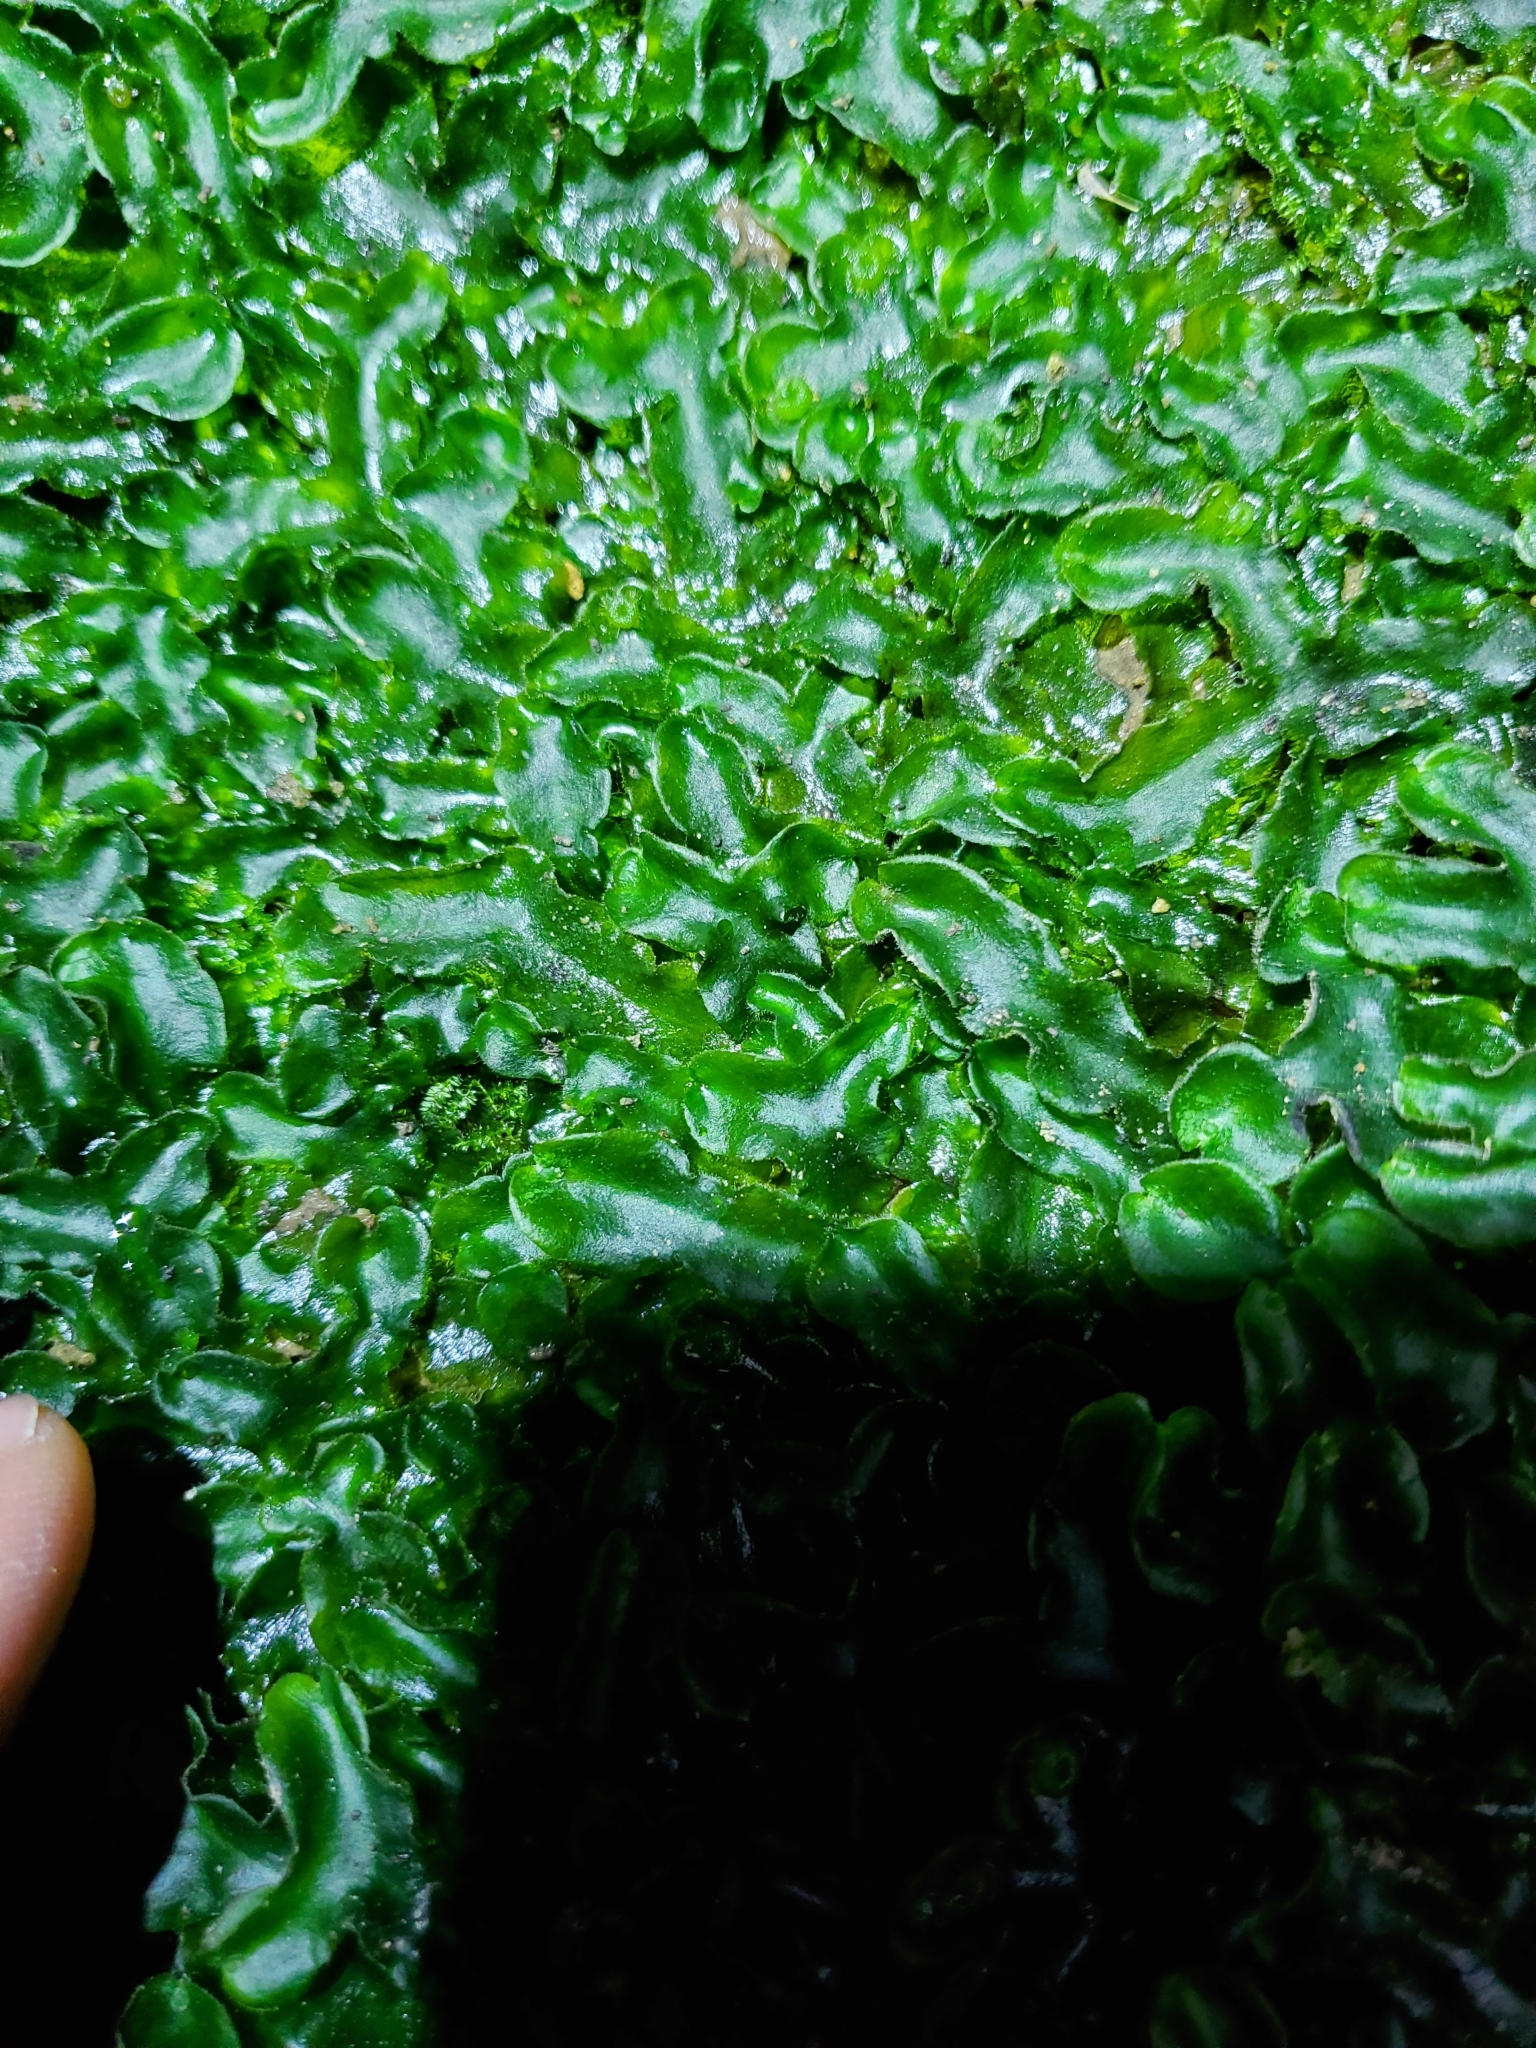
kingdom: Plantae
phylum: Marchantiophyta
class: Marchantiopsida
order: Marchantiales
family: Dumortieraceae
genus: Dumortiera
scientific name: Dumortiera hirsuta
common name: Dumortier's liverwort
